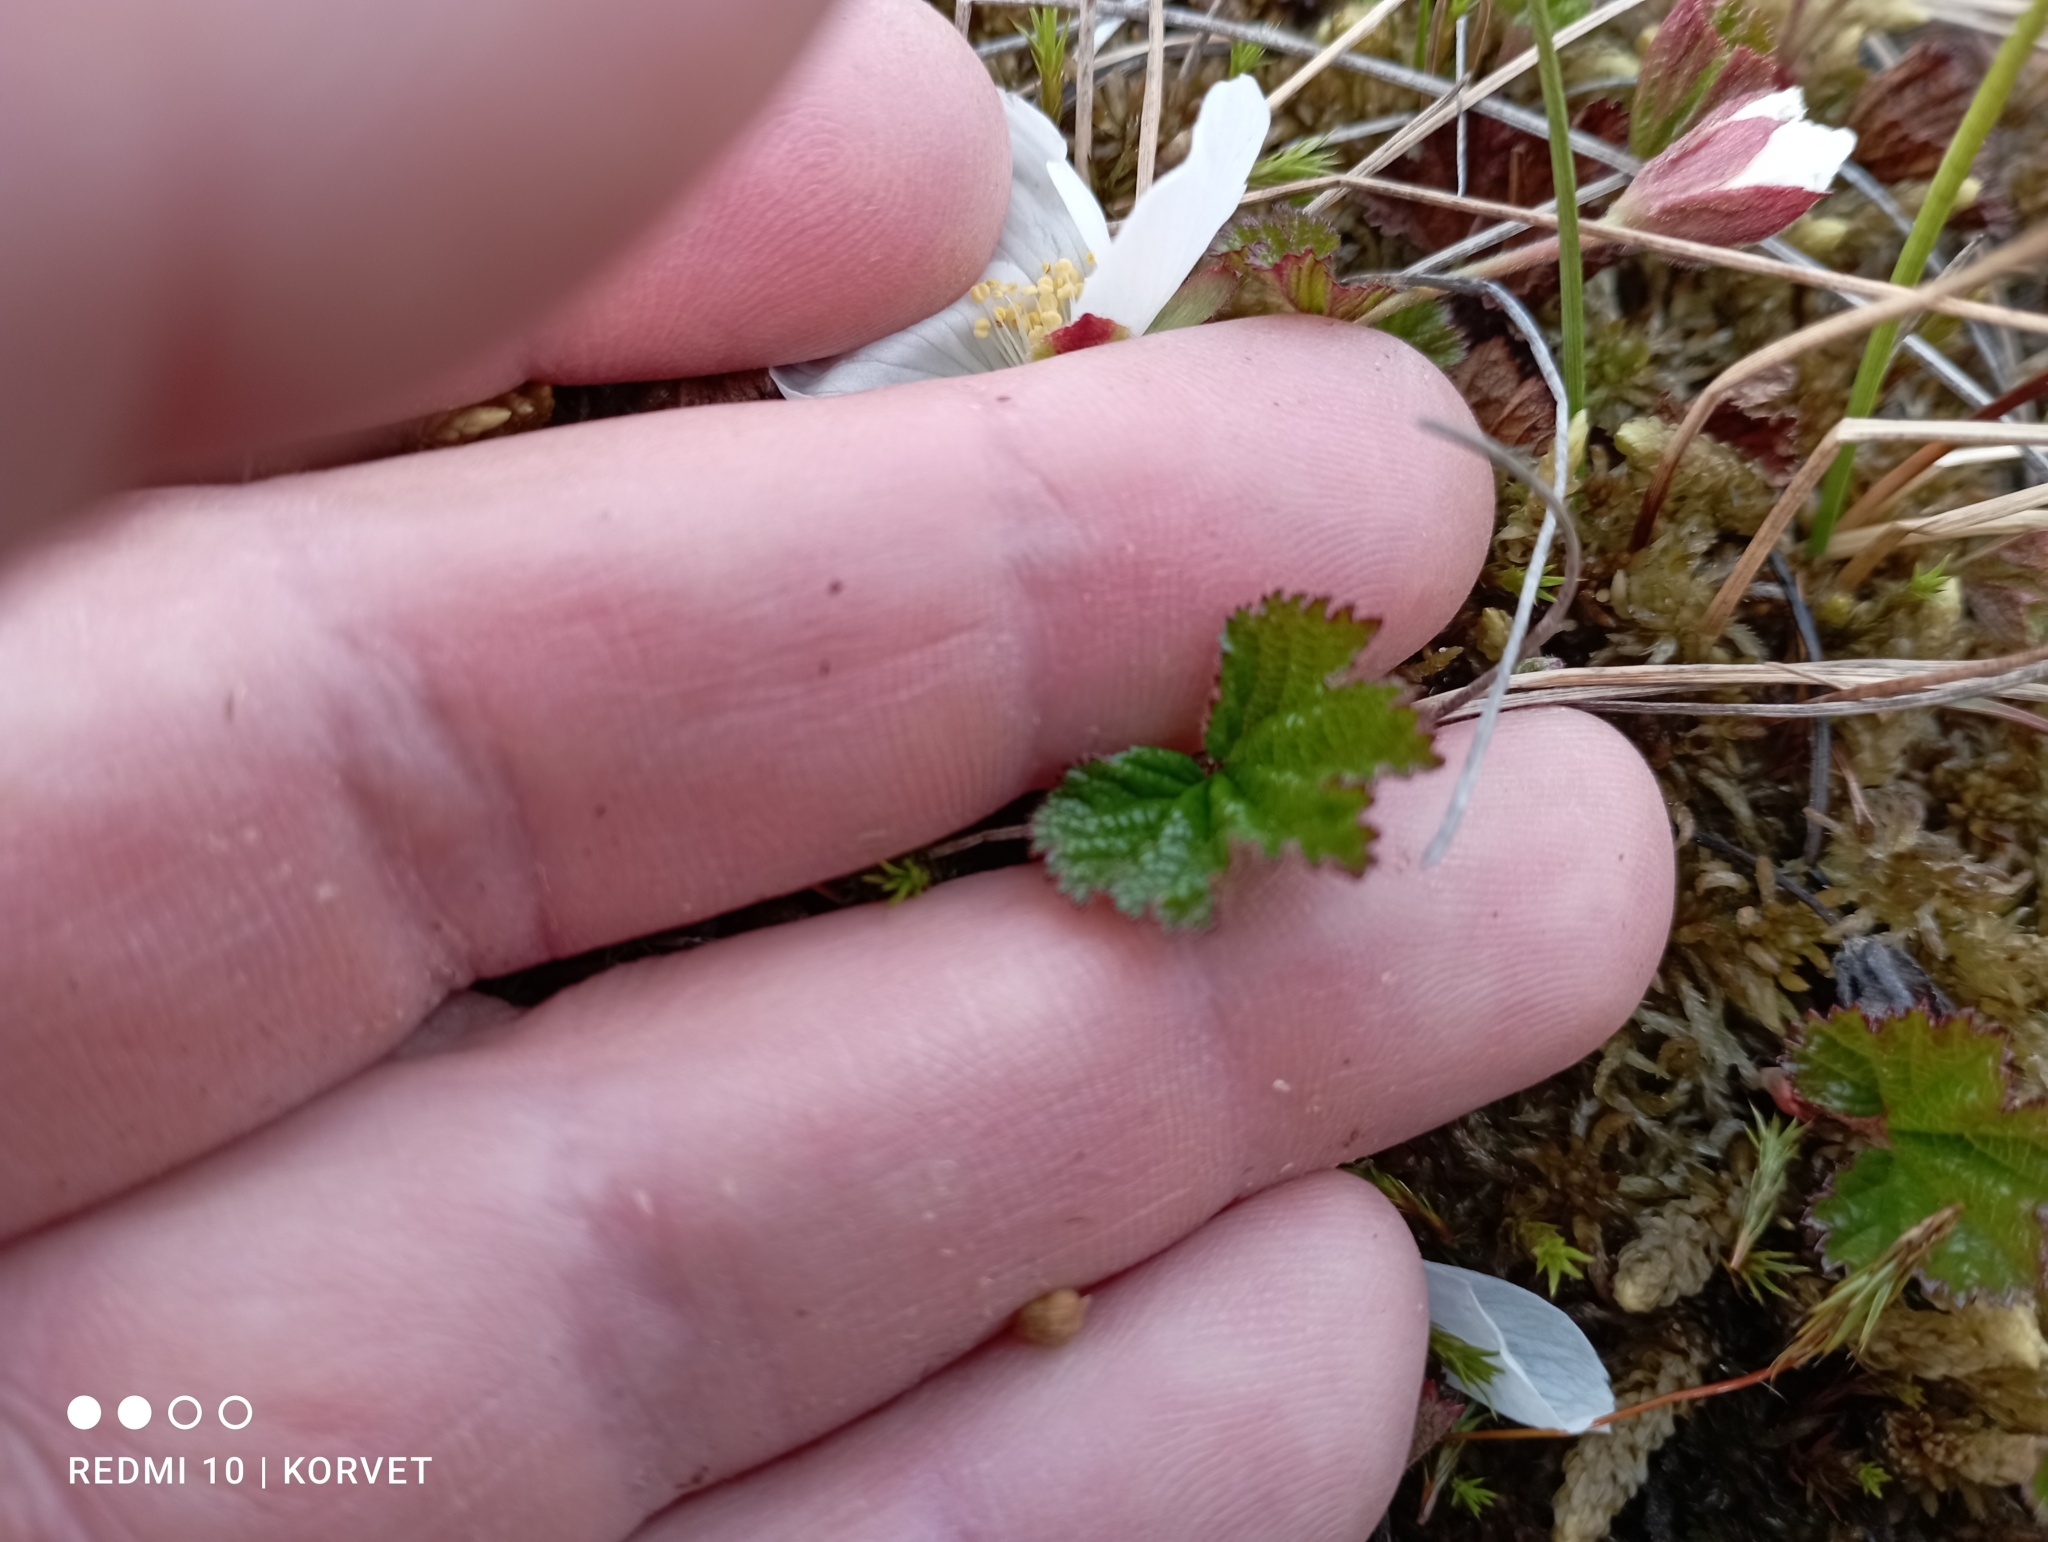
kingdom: Plantae
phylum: Tracheophyta
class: Magnoliopsida
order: Rosales
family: Rosaceae
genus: Rubus
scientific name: Rubus chamaemorus
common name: Cloudberry
